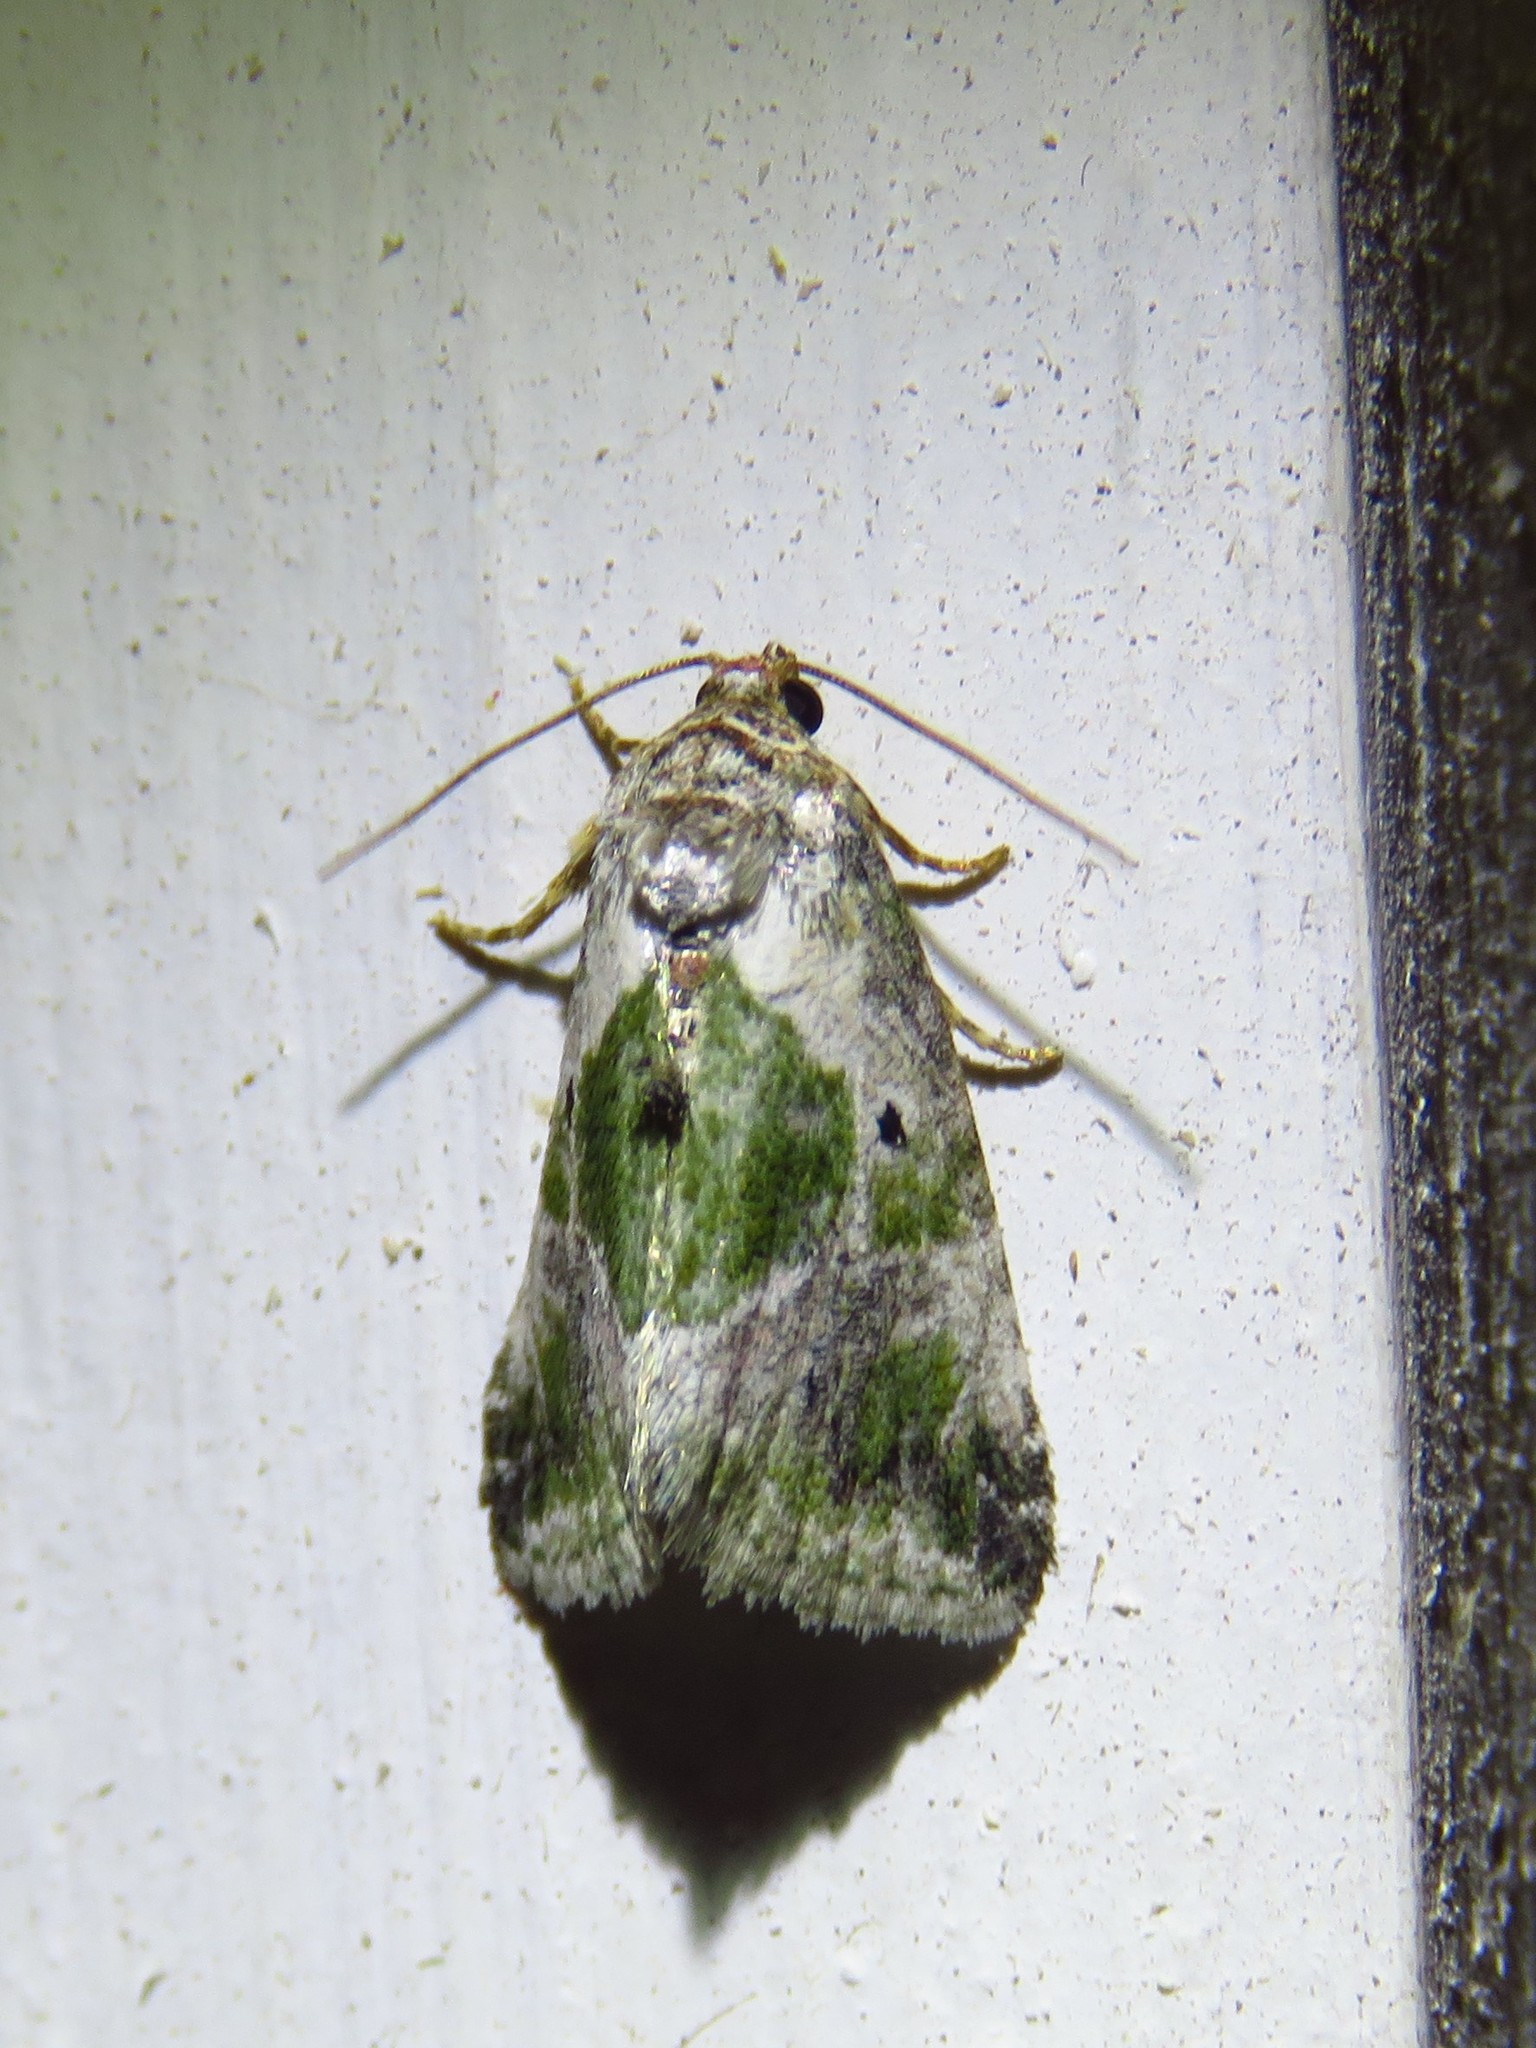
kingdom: Animalia
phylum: Arthropoda
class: Insecta
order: Lepidoptera
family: Noctuidae
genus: Maliattha
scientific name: Maliattha synochitis
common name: Black-dotted glyph
